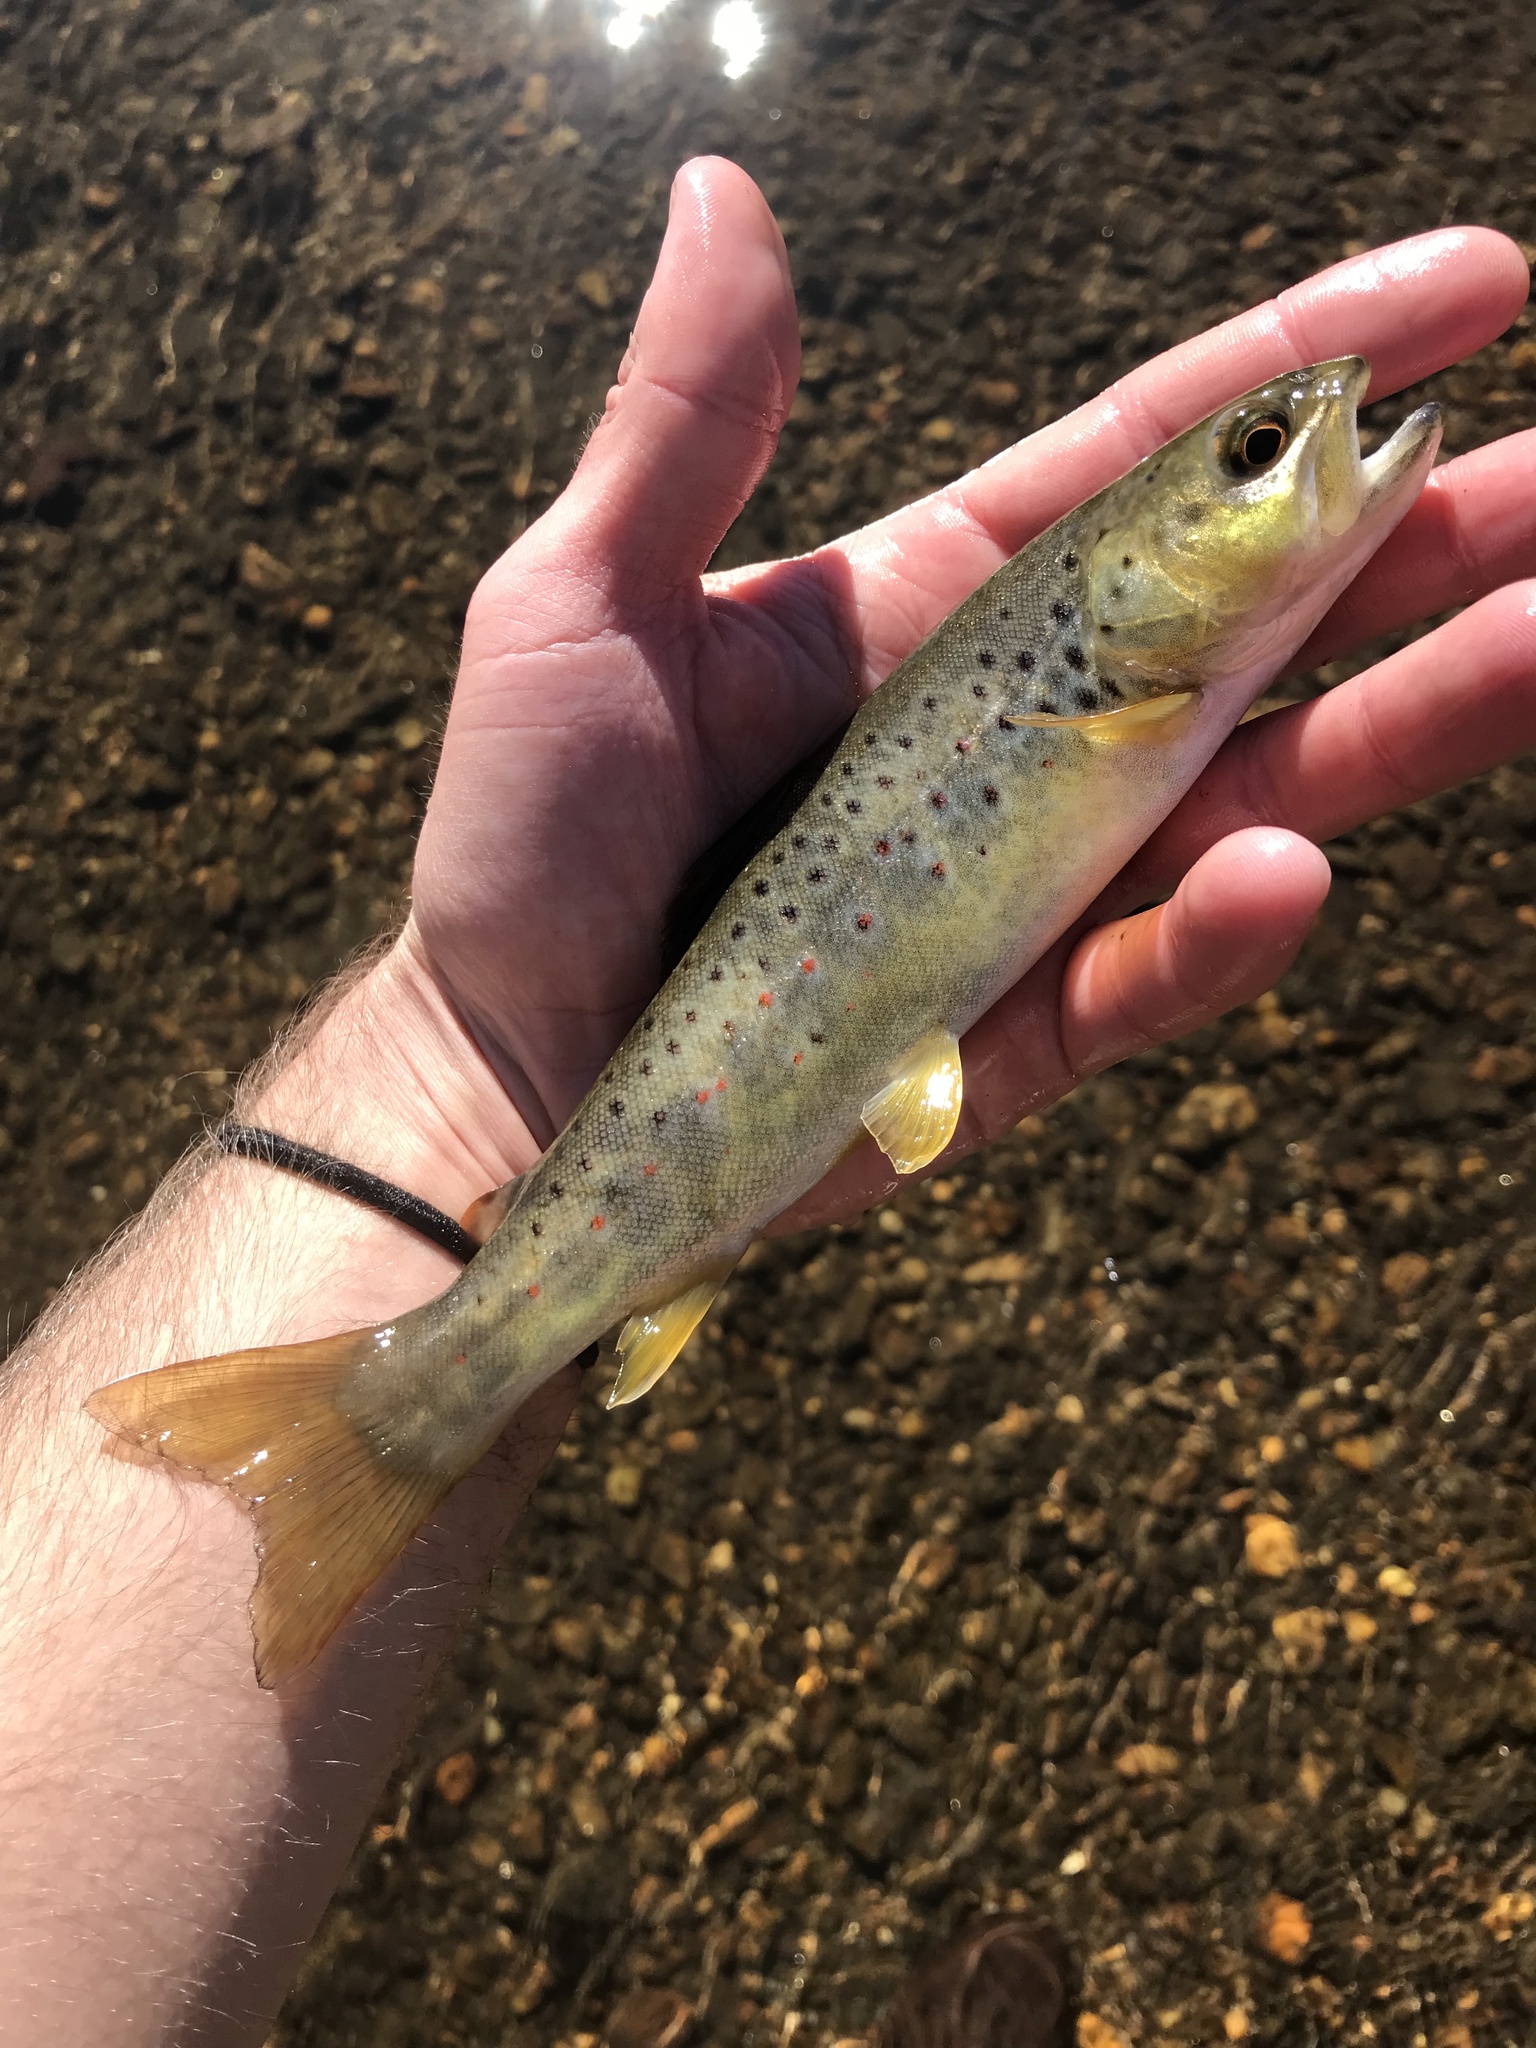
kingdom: Animalia
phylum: Chordata
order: Salmoniformes
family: Salmonidae
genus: Salmo
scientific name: Salmo trutta
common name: Brown trout
